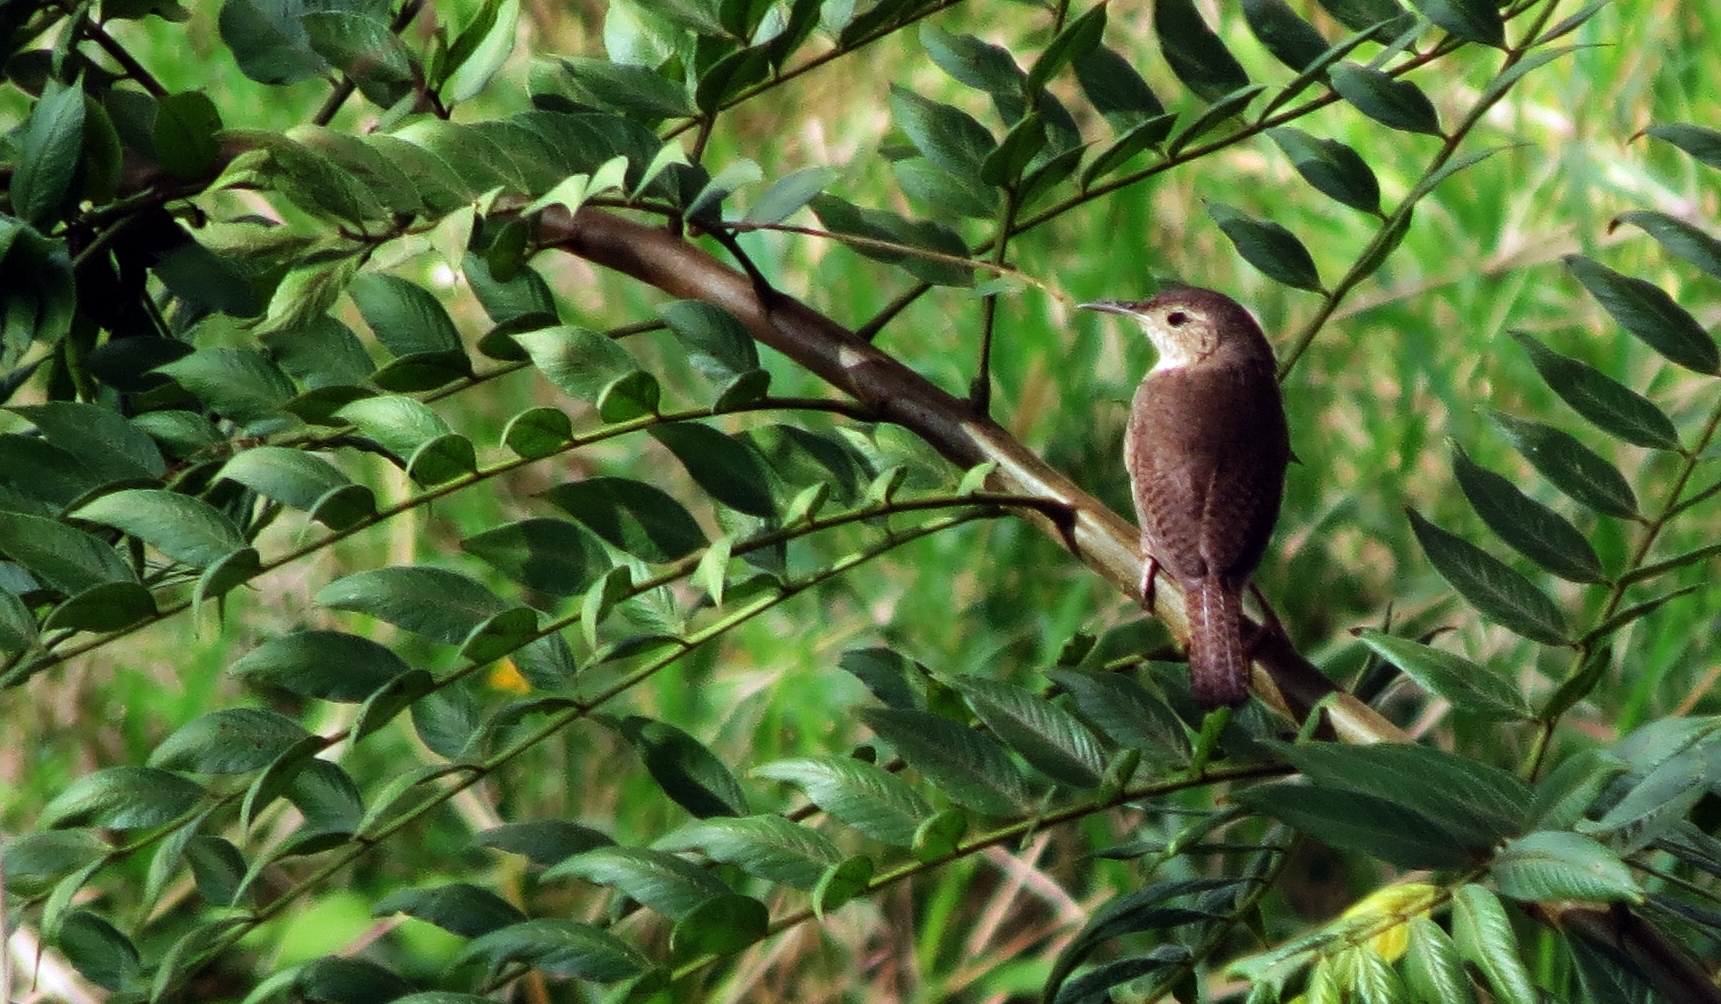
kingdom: Animalia
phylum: Chordata
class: Aves
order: Passeriformes
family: Troglodytidae
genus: Troglodytes
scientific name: Troglodytes aedon
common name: House wren
